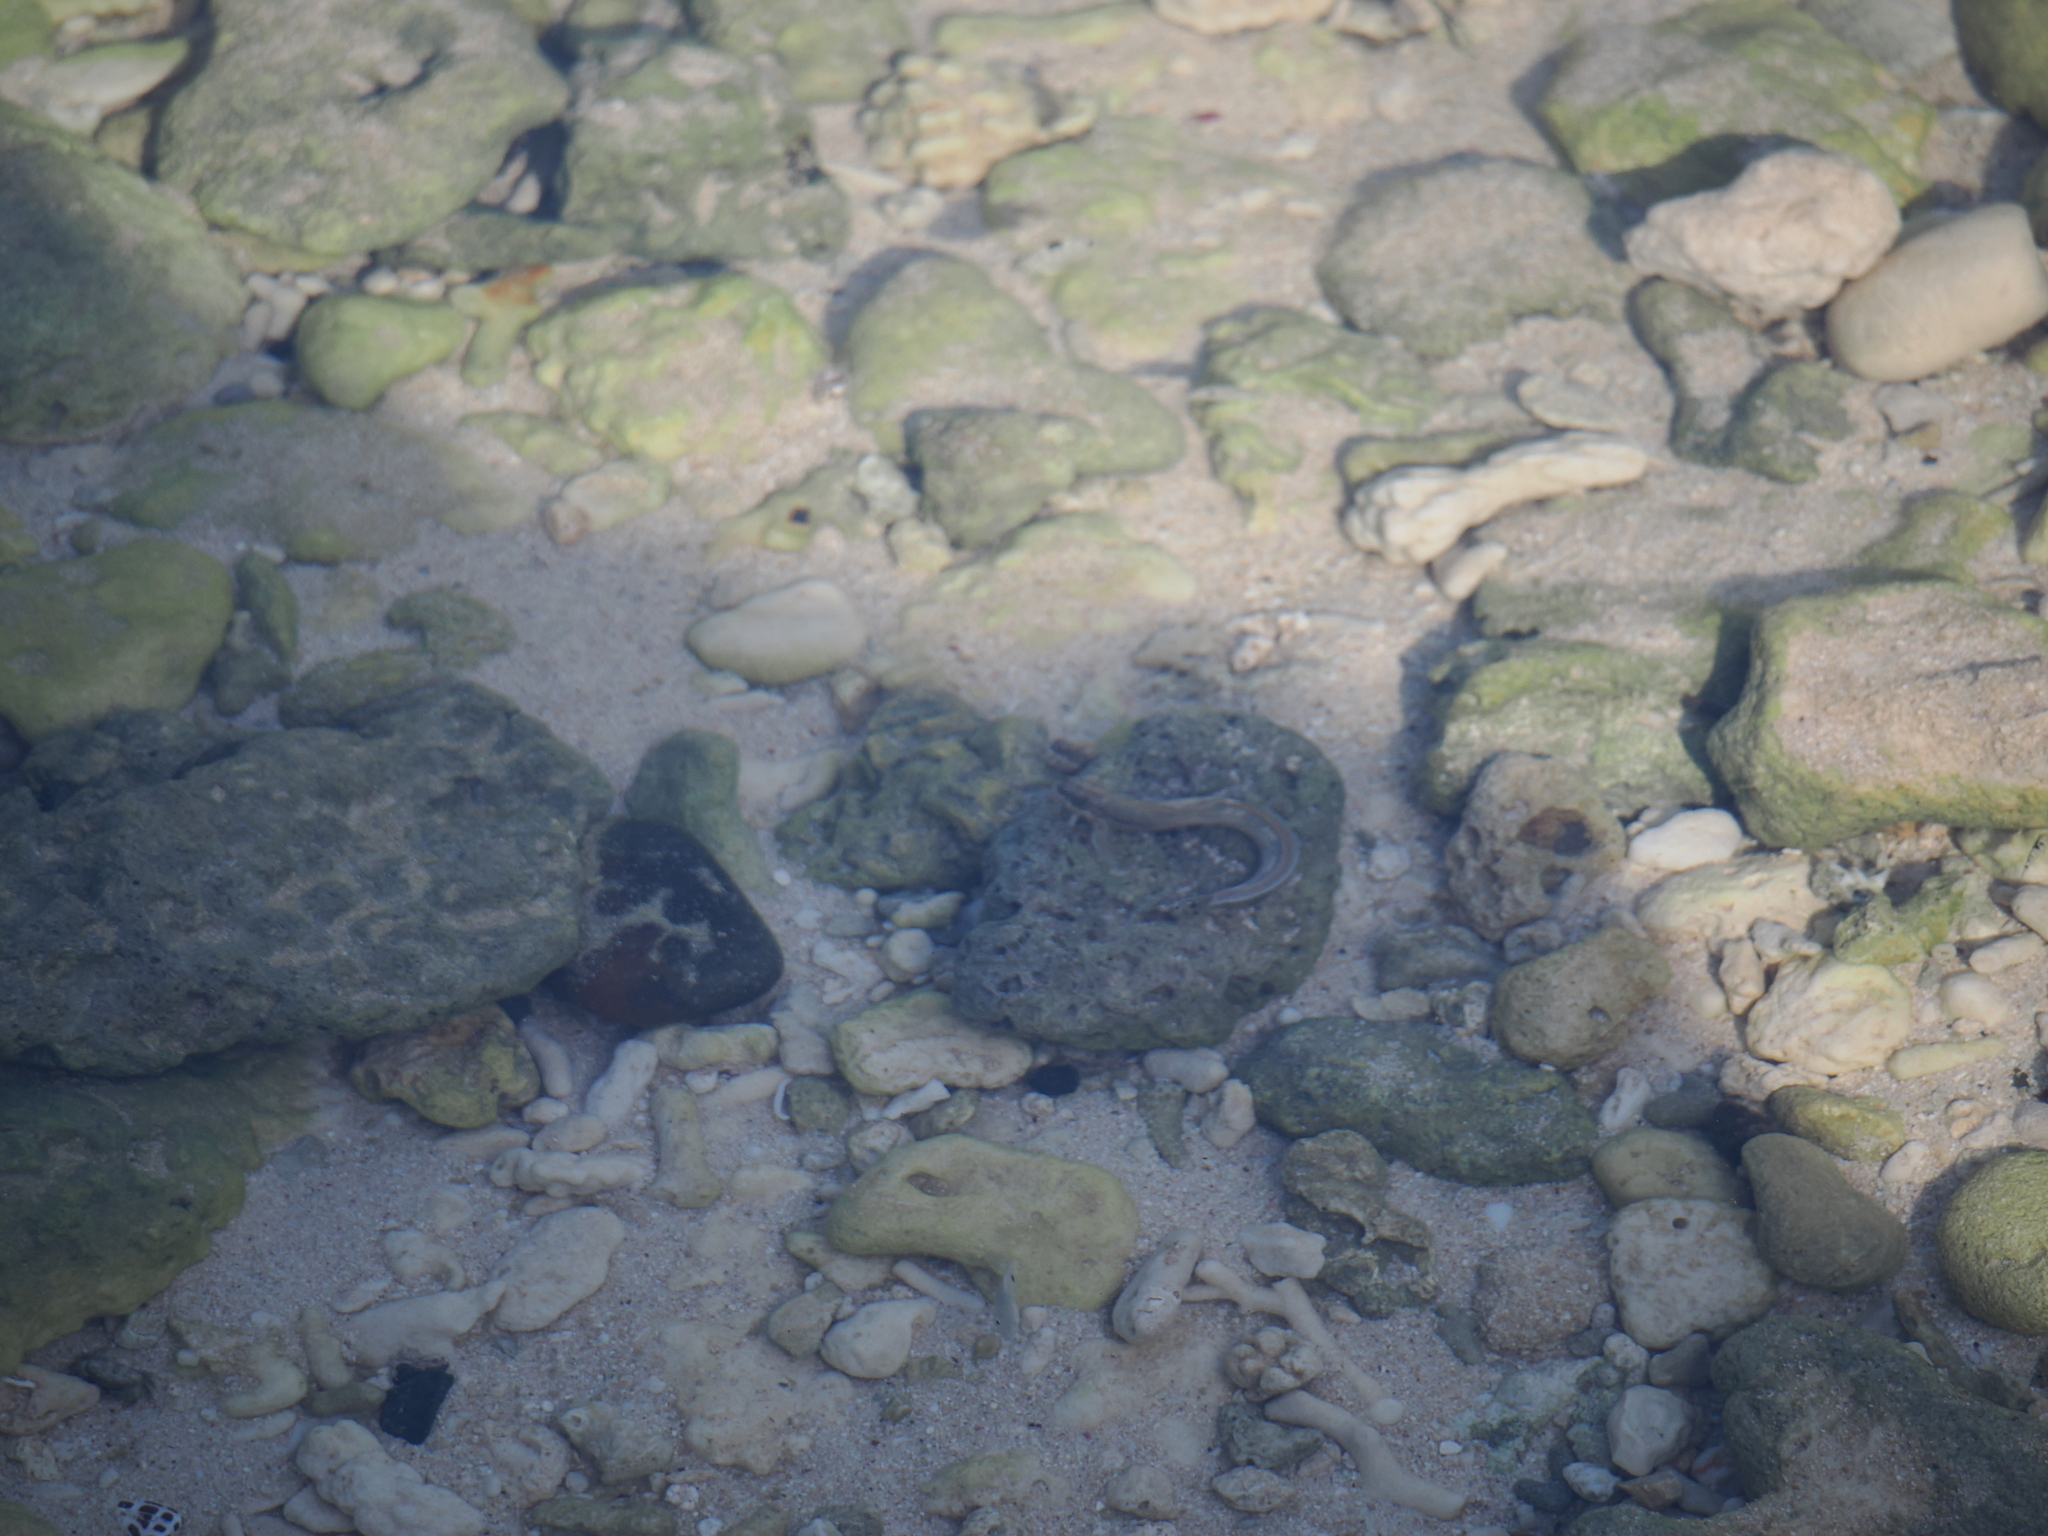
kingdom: Animalia
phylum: Chordata
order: Perciformes
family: Blenniidae
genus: Istiblennius
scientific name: Istiblennius lineatus
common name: Black-lined blenny
